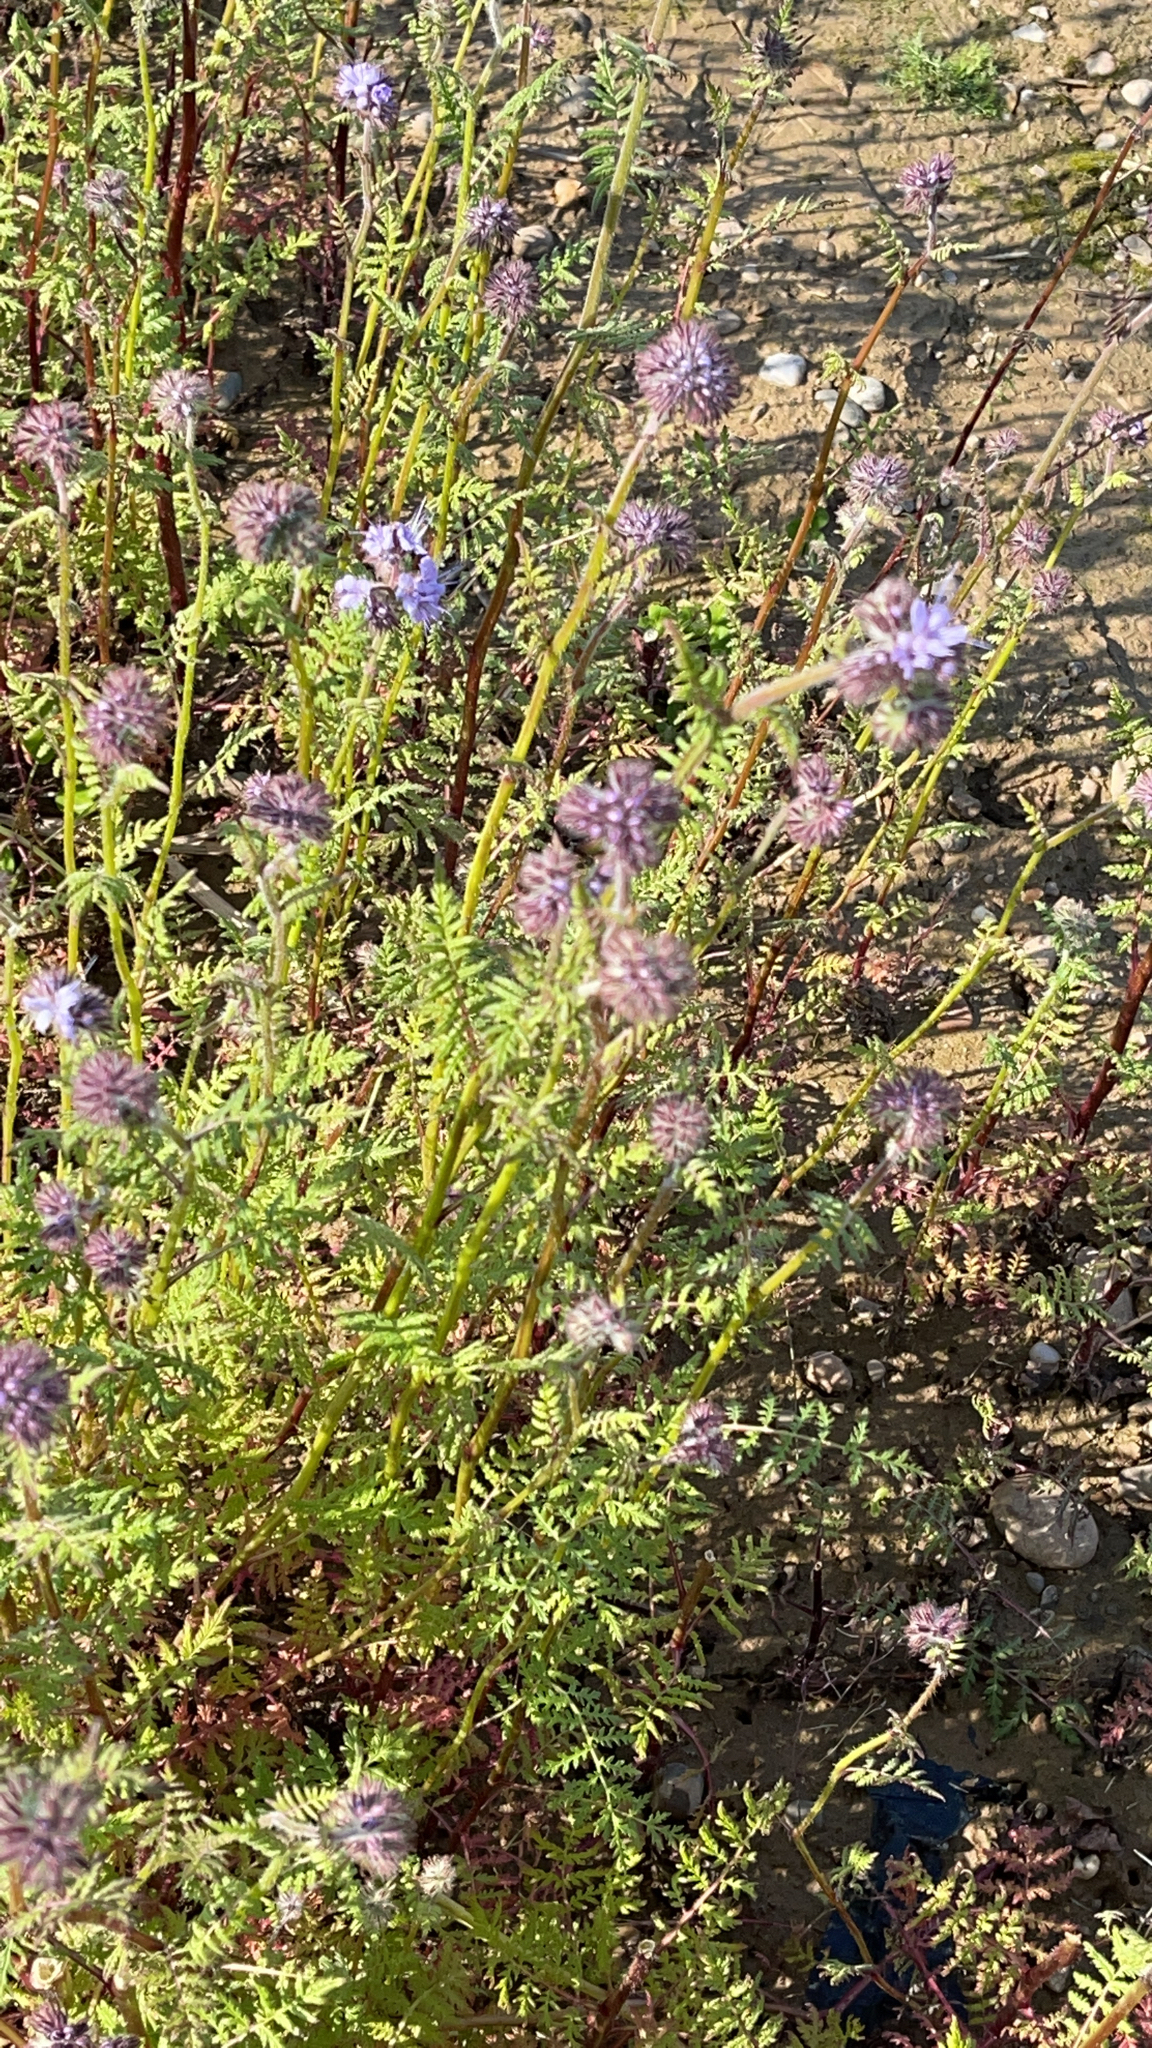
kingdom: Plantae
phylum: Tracheophyta
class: Magnoliopsida
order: Boraginales
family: Hydrophyllaceae
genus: Phacelia
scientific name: Phacelia tanacetifolia
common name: Phacelia
